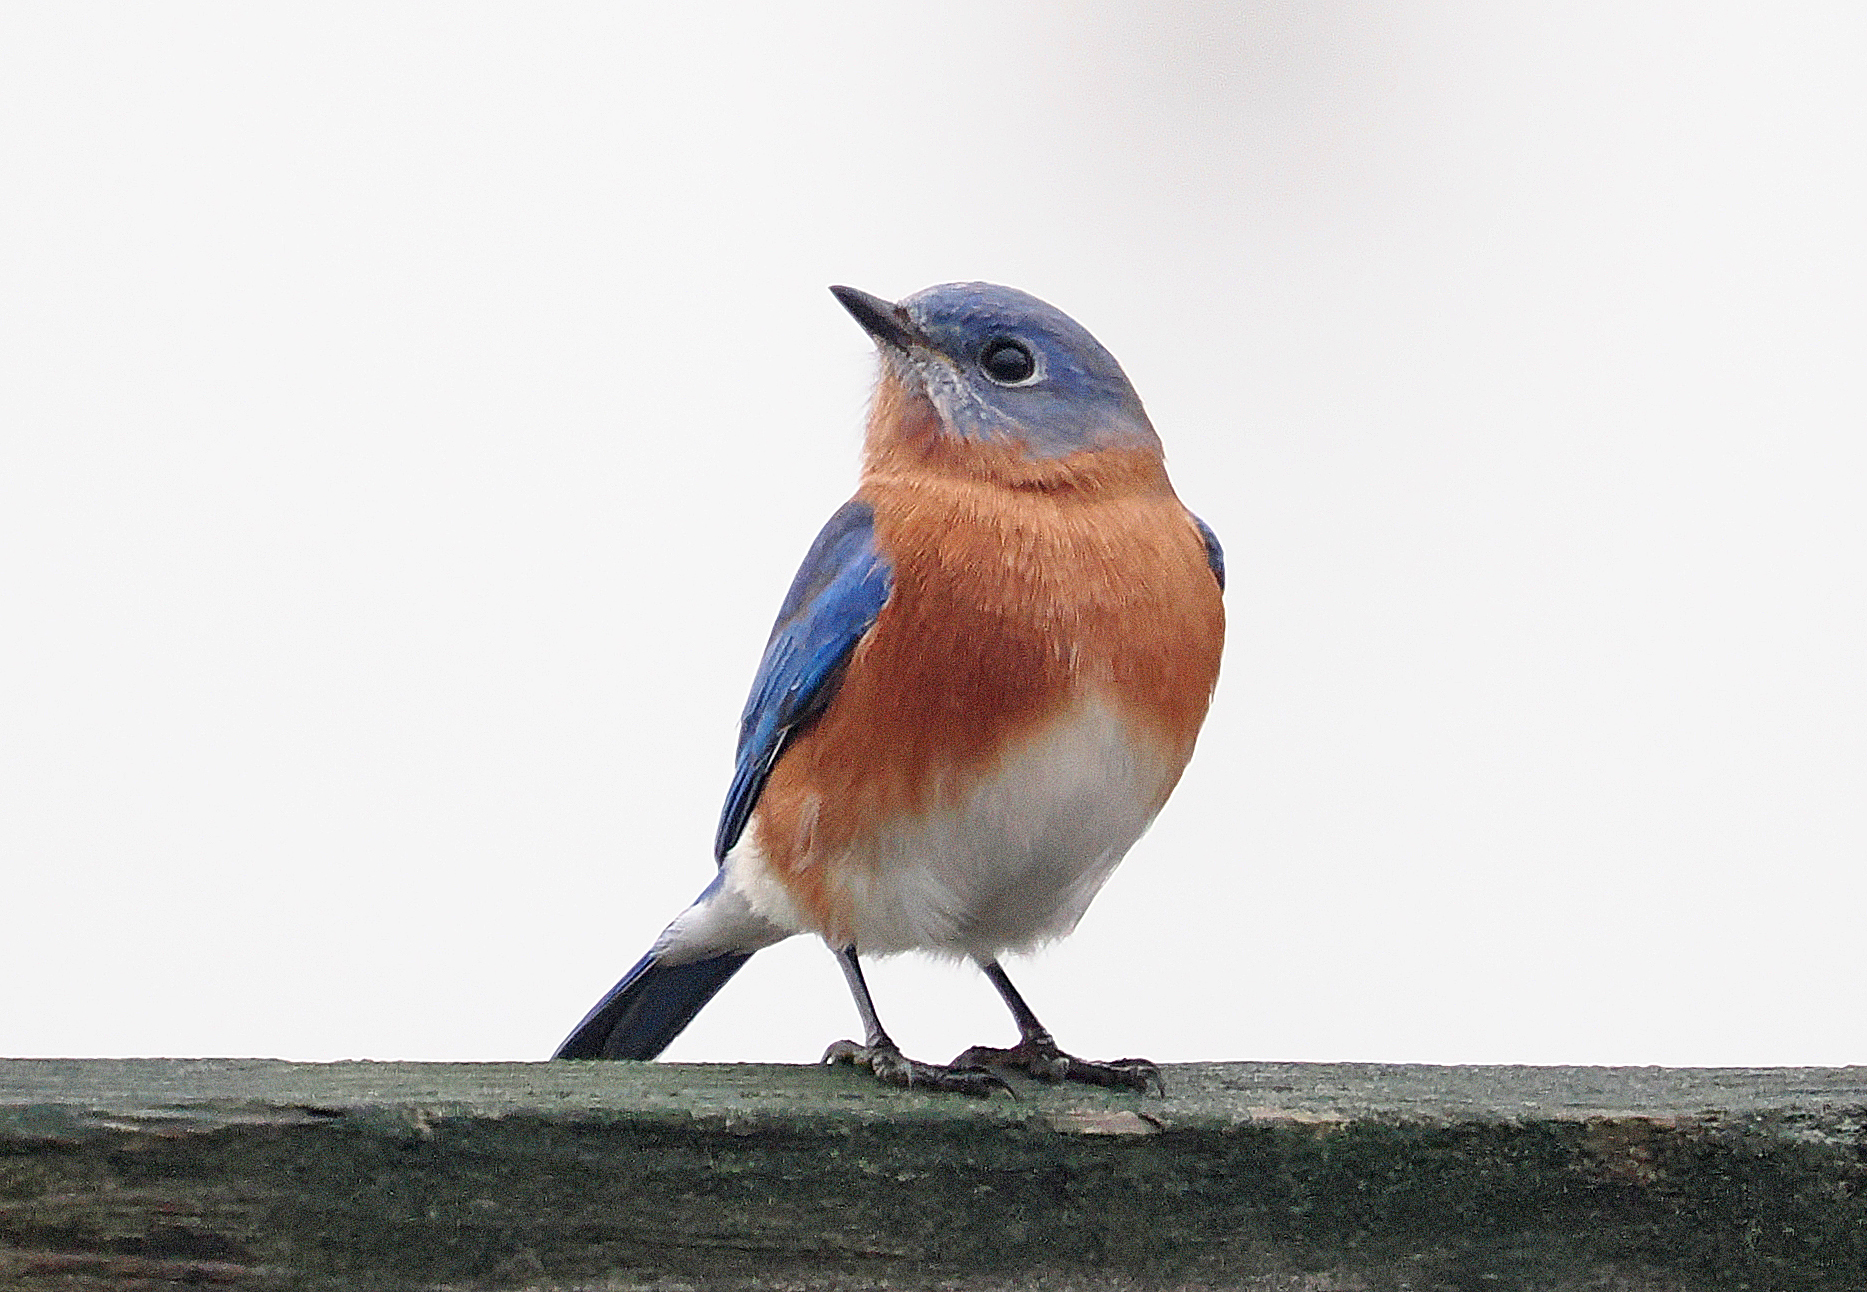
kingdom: Animalia
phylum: Chordata
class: Aves
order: Passeriformes
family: Turdidae
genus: Sialia
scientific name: Sialia sialis
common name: Eastern bluebird
